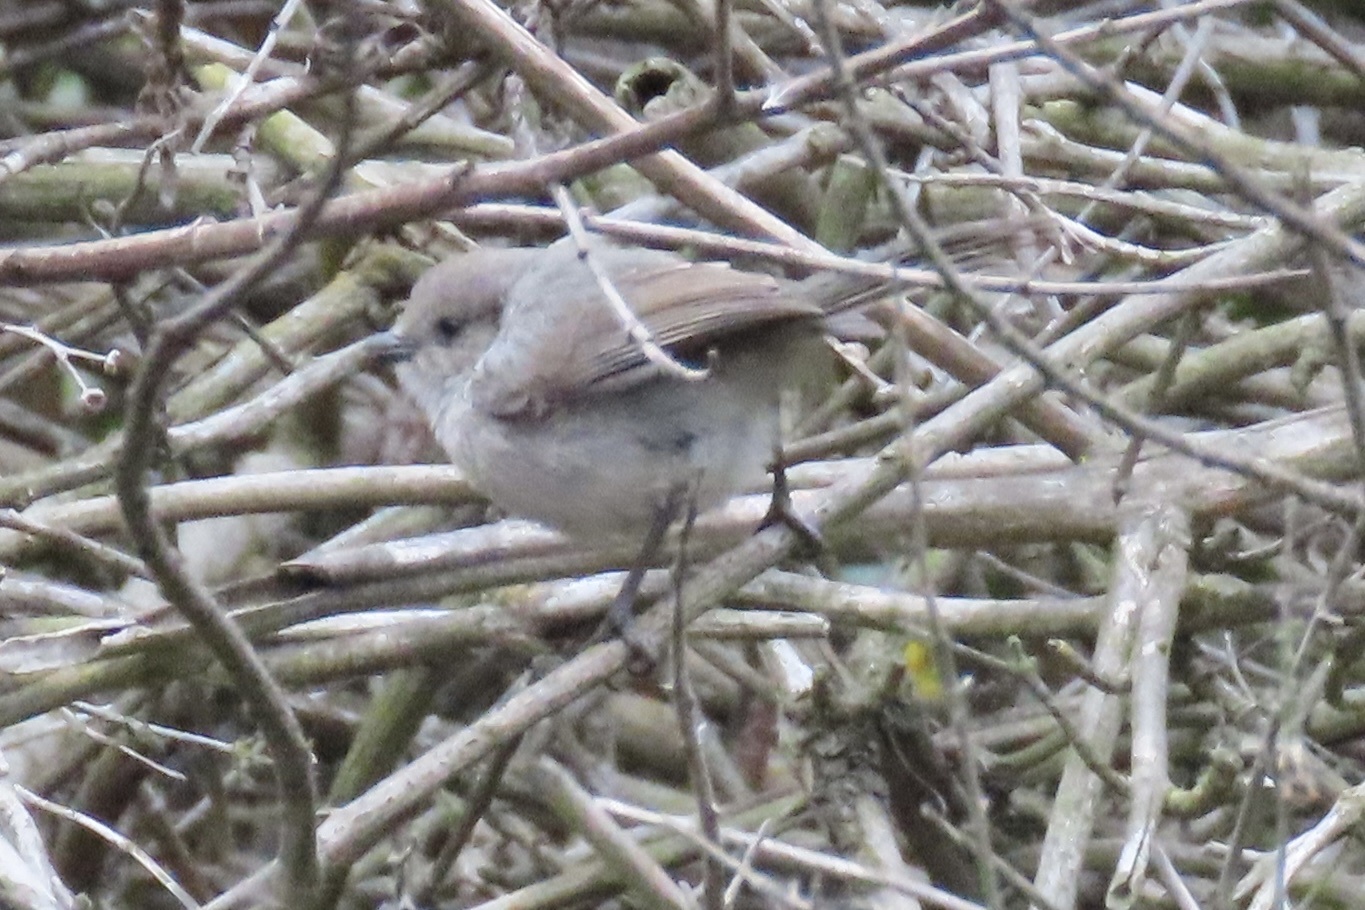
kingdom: Animalia
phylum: Chordata
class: Aves
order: Passeriformes
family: Aegithalidae
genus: Psaltriparus
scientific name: Psaltriparus minimus
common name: American bushtit
